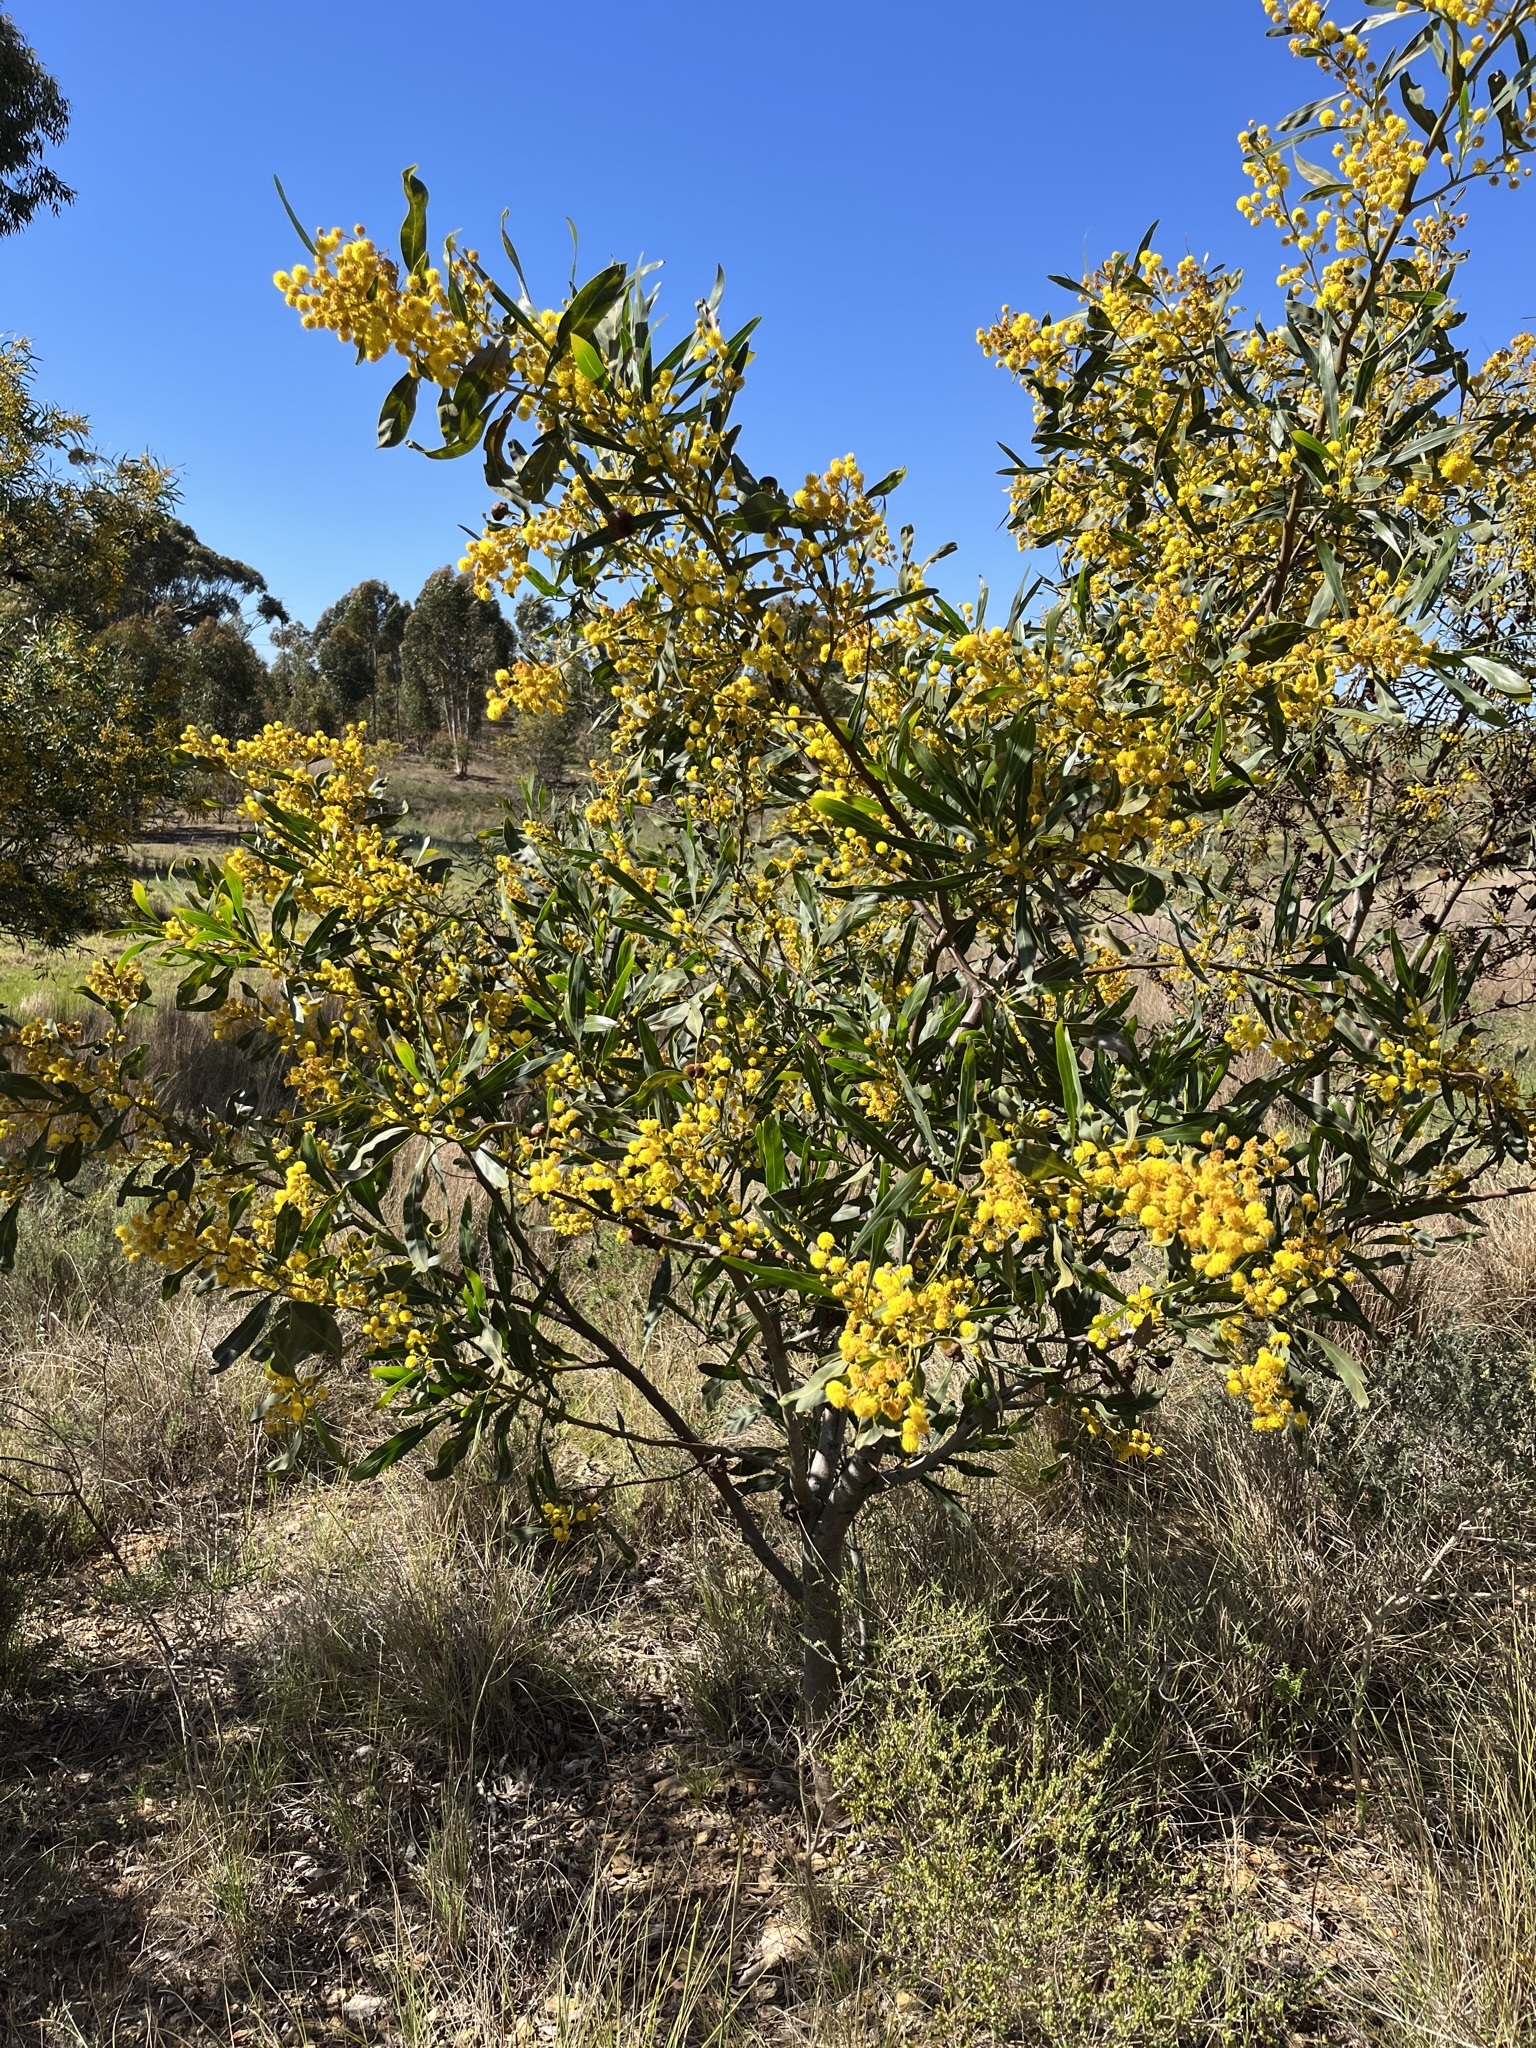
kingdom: Plantae
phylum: Tracheophyta
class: Magnoliopsida
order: Fabales
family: Fabaceae
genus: Acacia
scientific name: Acacia saligna
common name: Orange wattle
